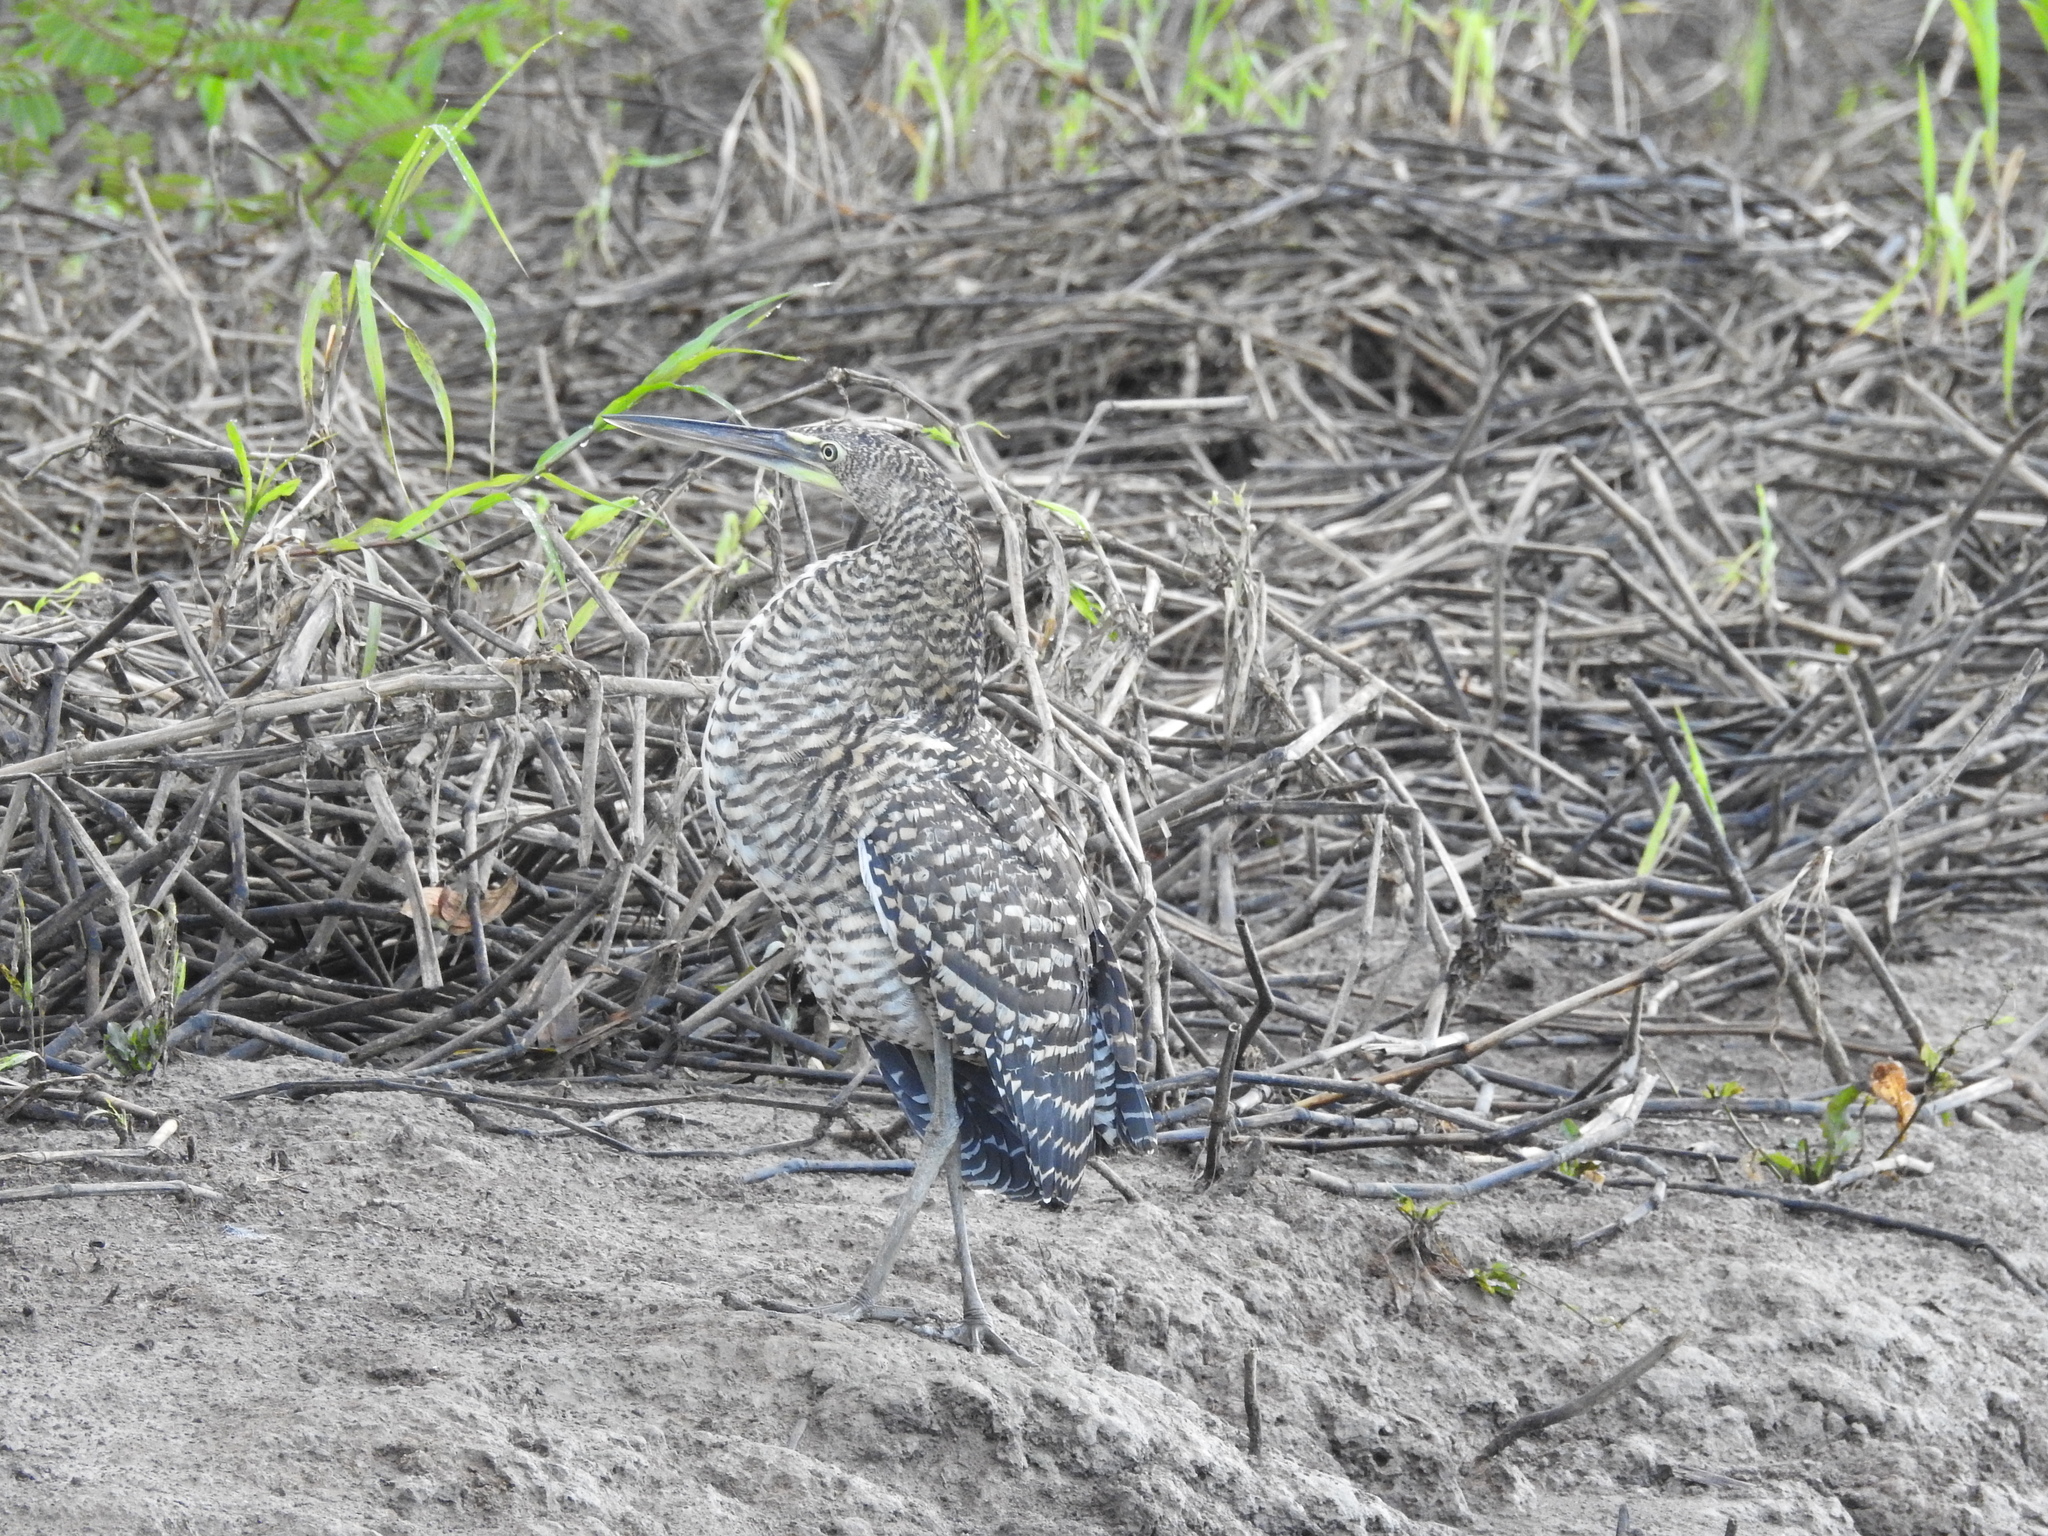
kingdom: Animalia
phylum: Chordata
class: Aves
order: Pelecaniformes
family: Ardeidae
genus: Tigrisoma
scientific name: Tigrisoma mexicanum
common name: Bare-throated tiger-heron
